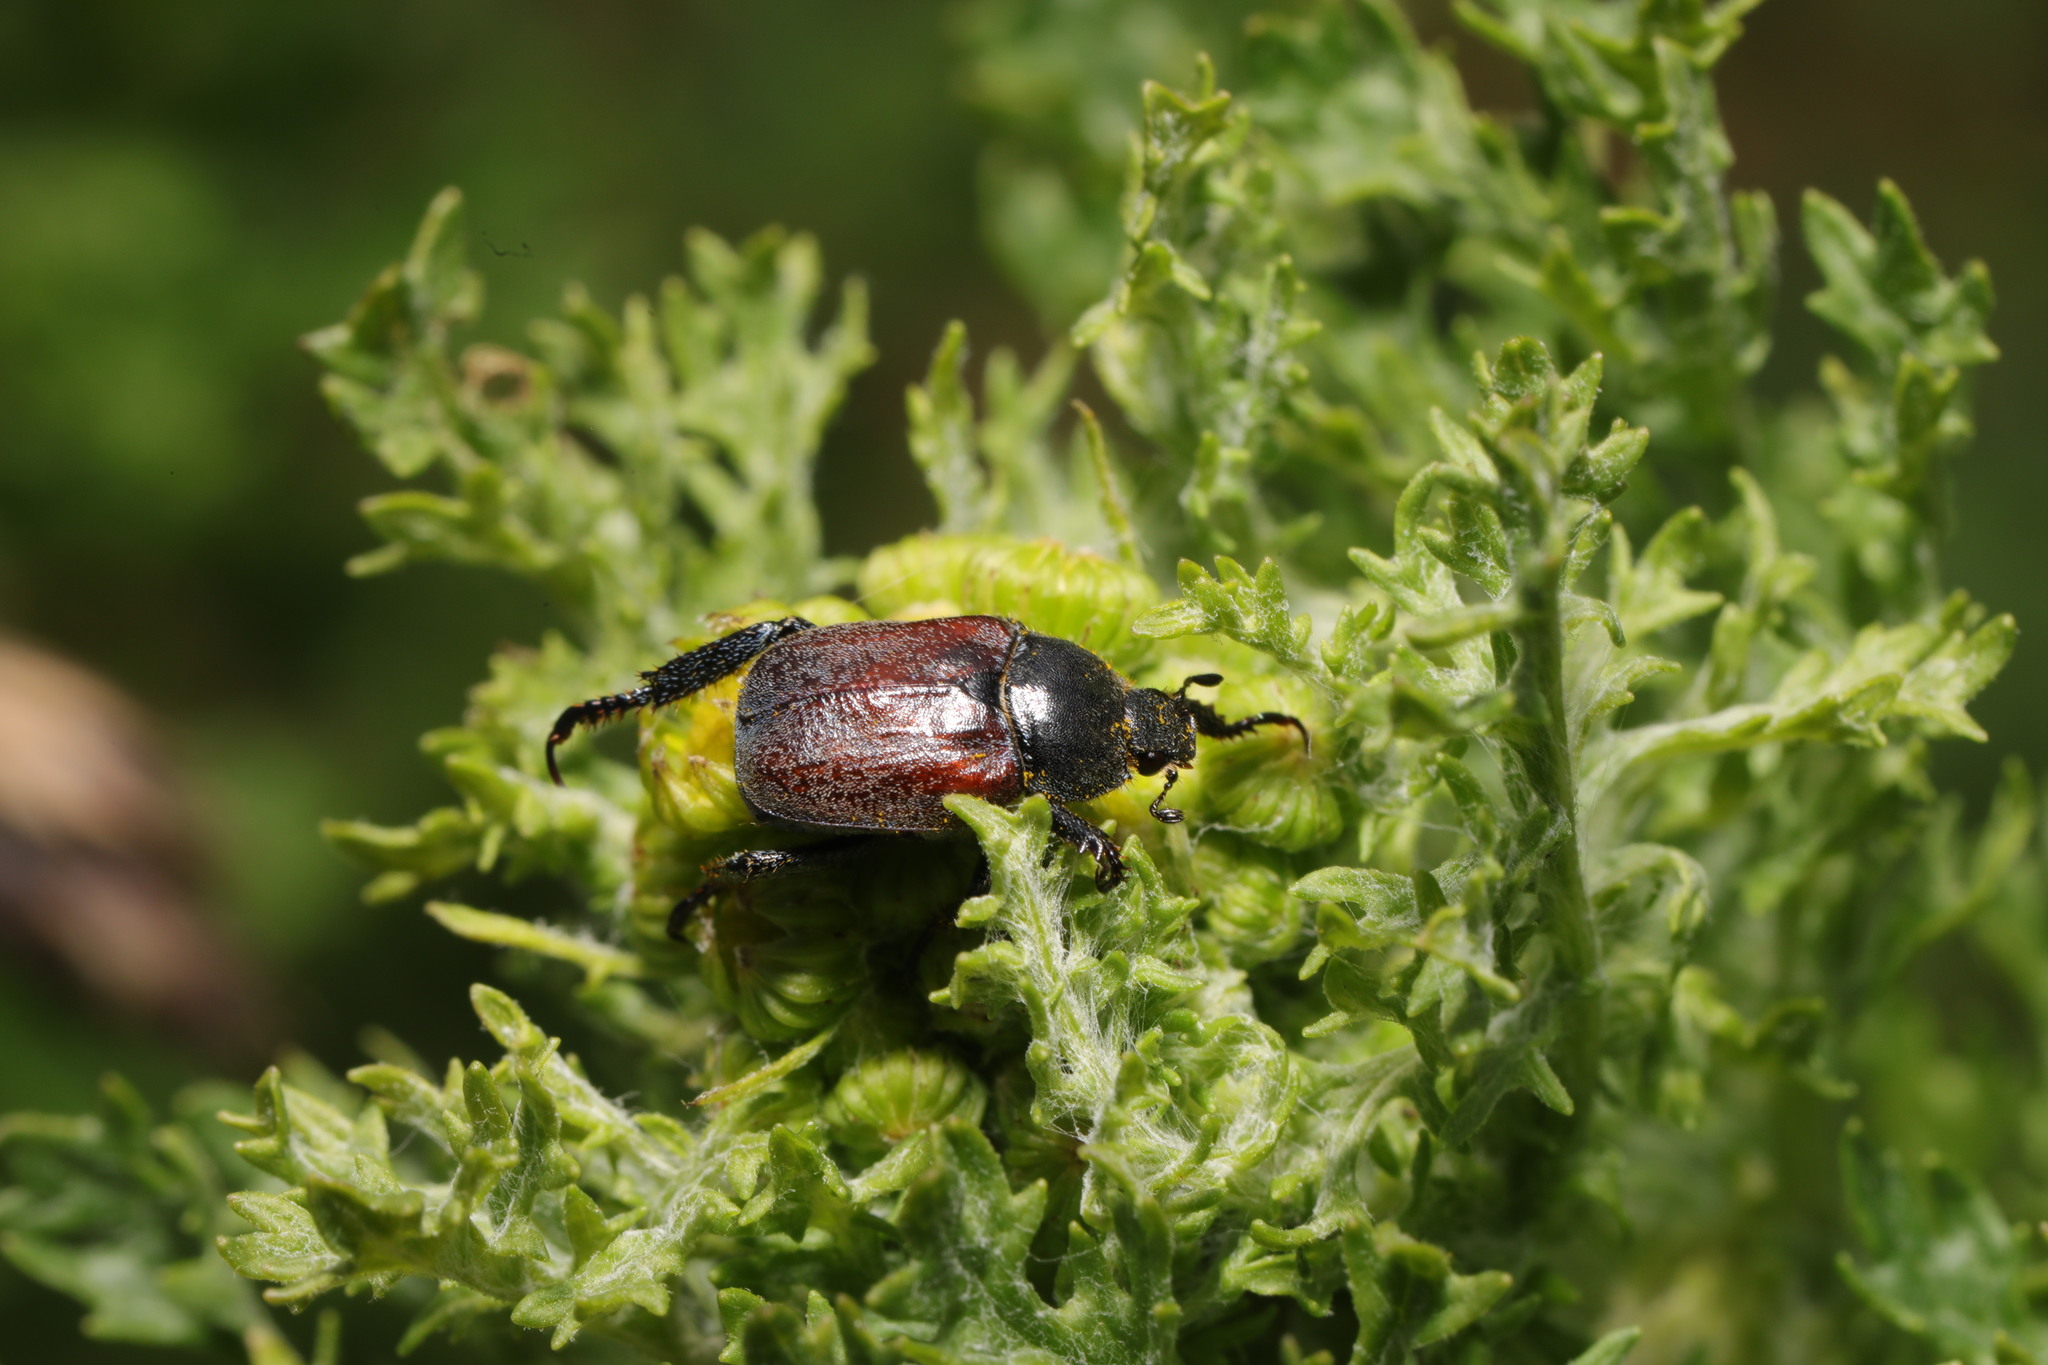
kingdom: Animalia
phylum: Arthropoda
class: Insecta
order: Coleoptera
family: Scarabaeidae
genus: Hoplia
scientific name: Hoplia philanthus
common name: Welsh chafer
